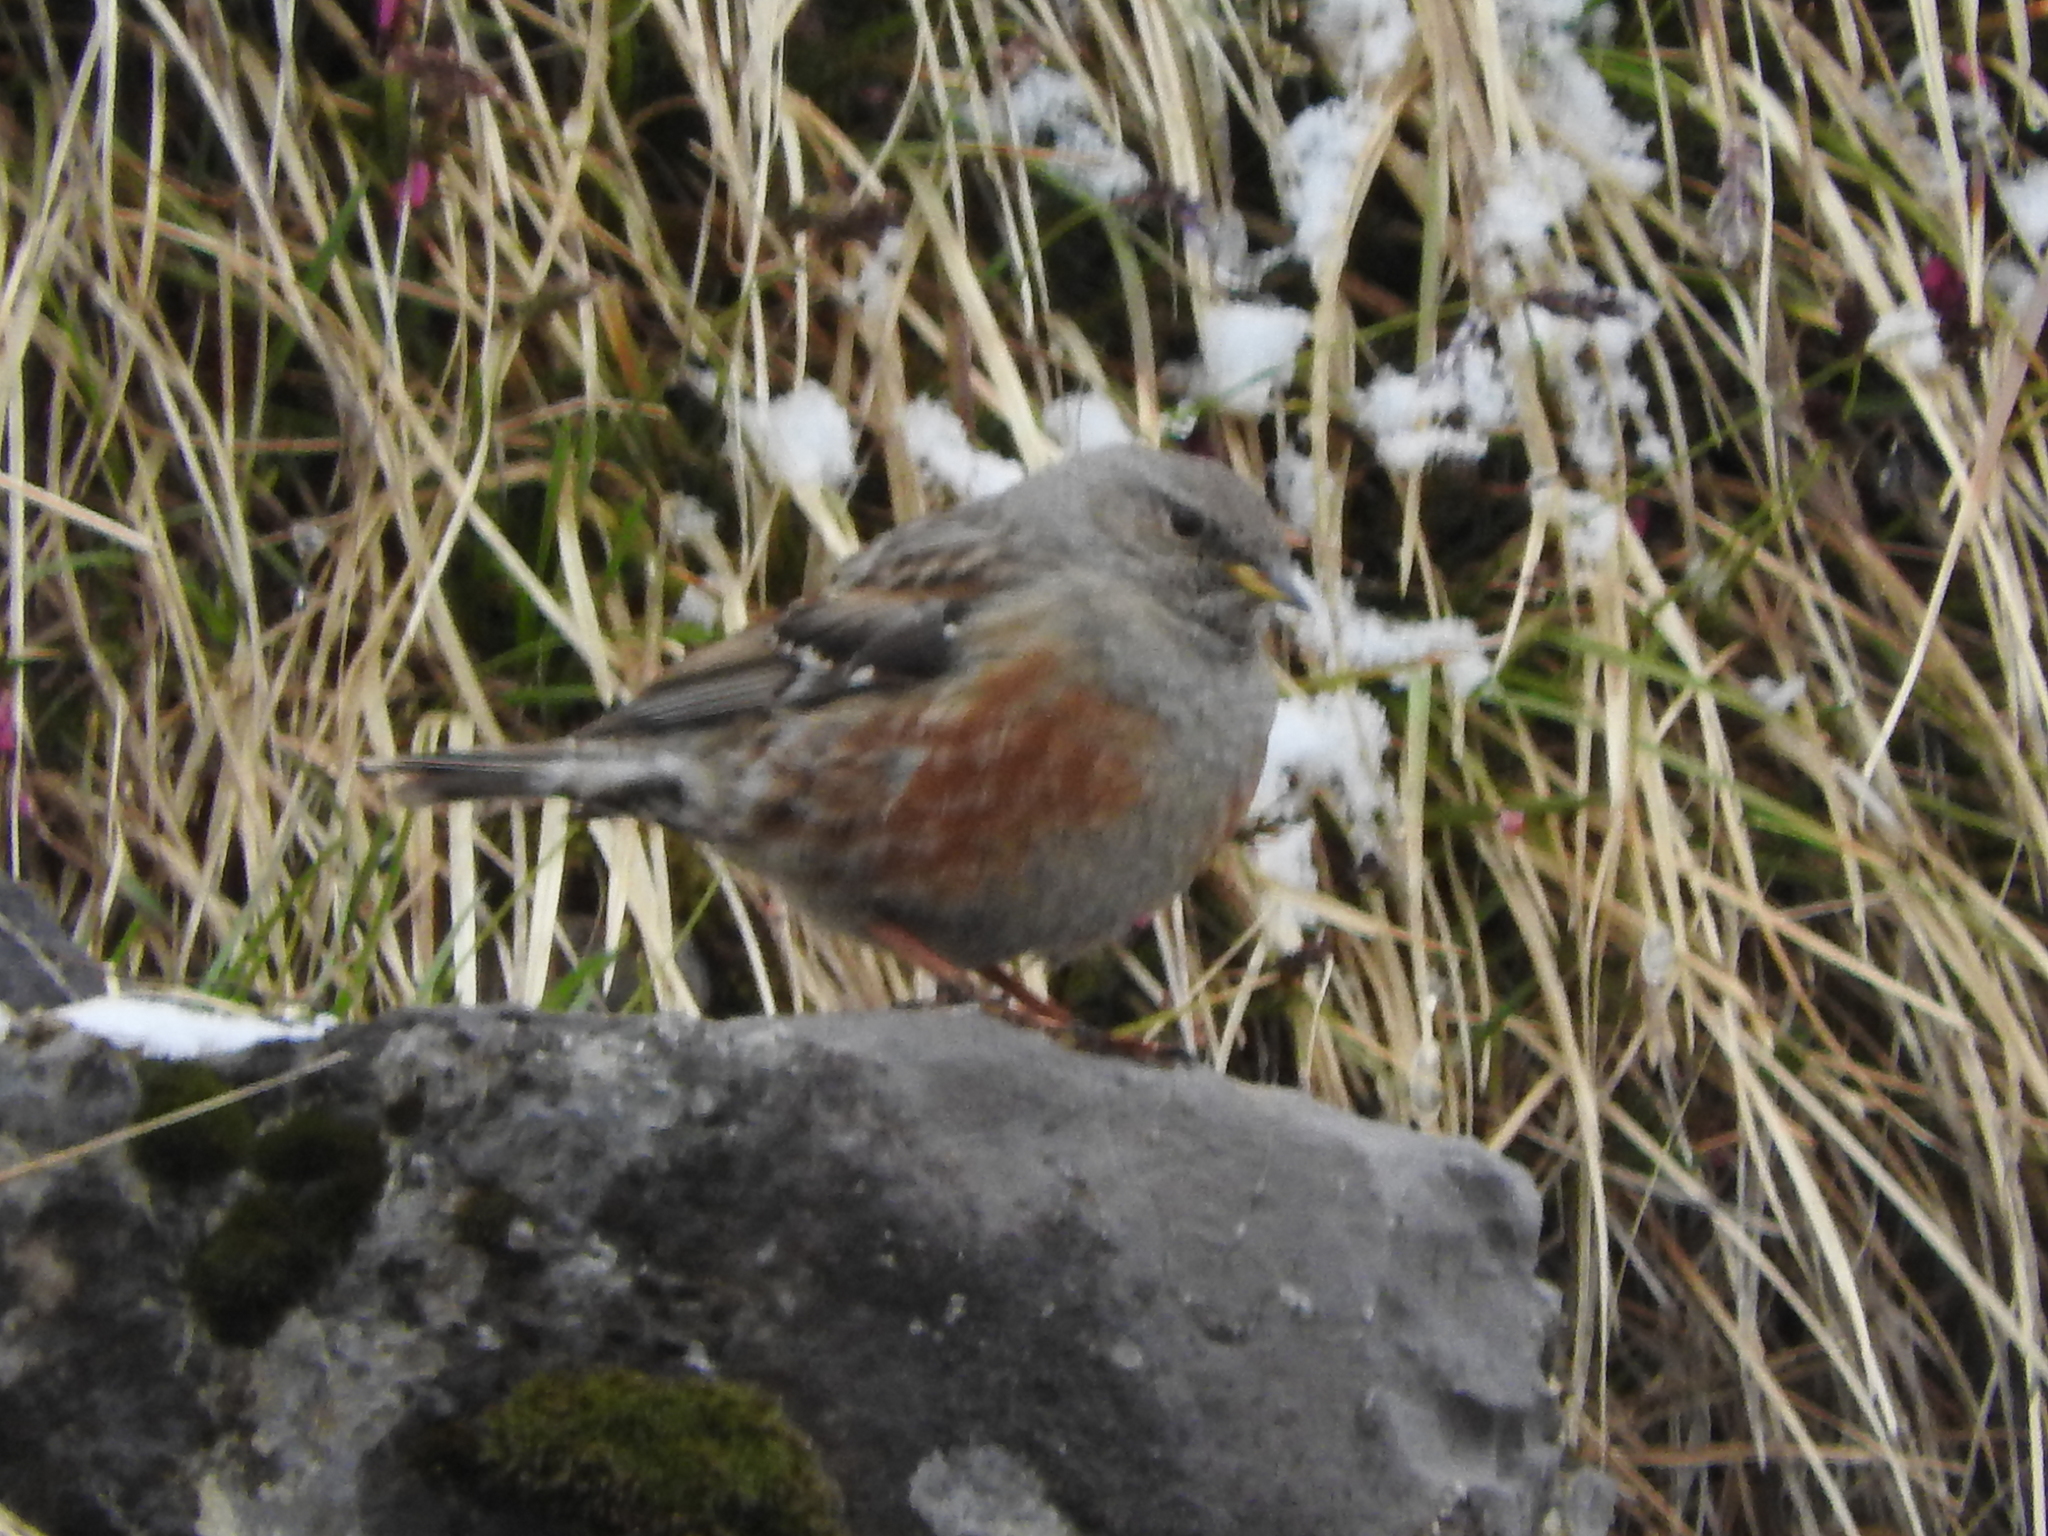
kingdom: Animalia
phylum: Chordata
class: Aves
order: Passeriformes
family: Prunellidae
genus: Prunella
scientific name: Prunella collaris
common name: Alpine accentor
